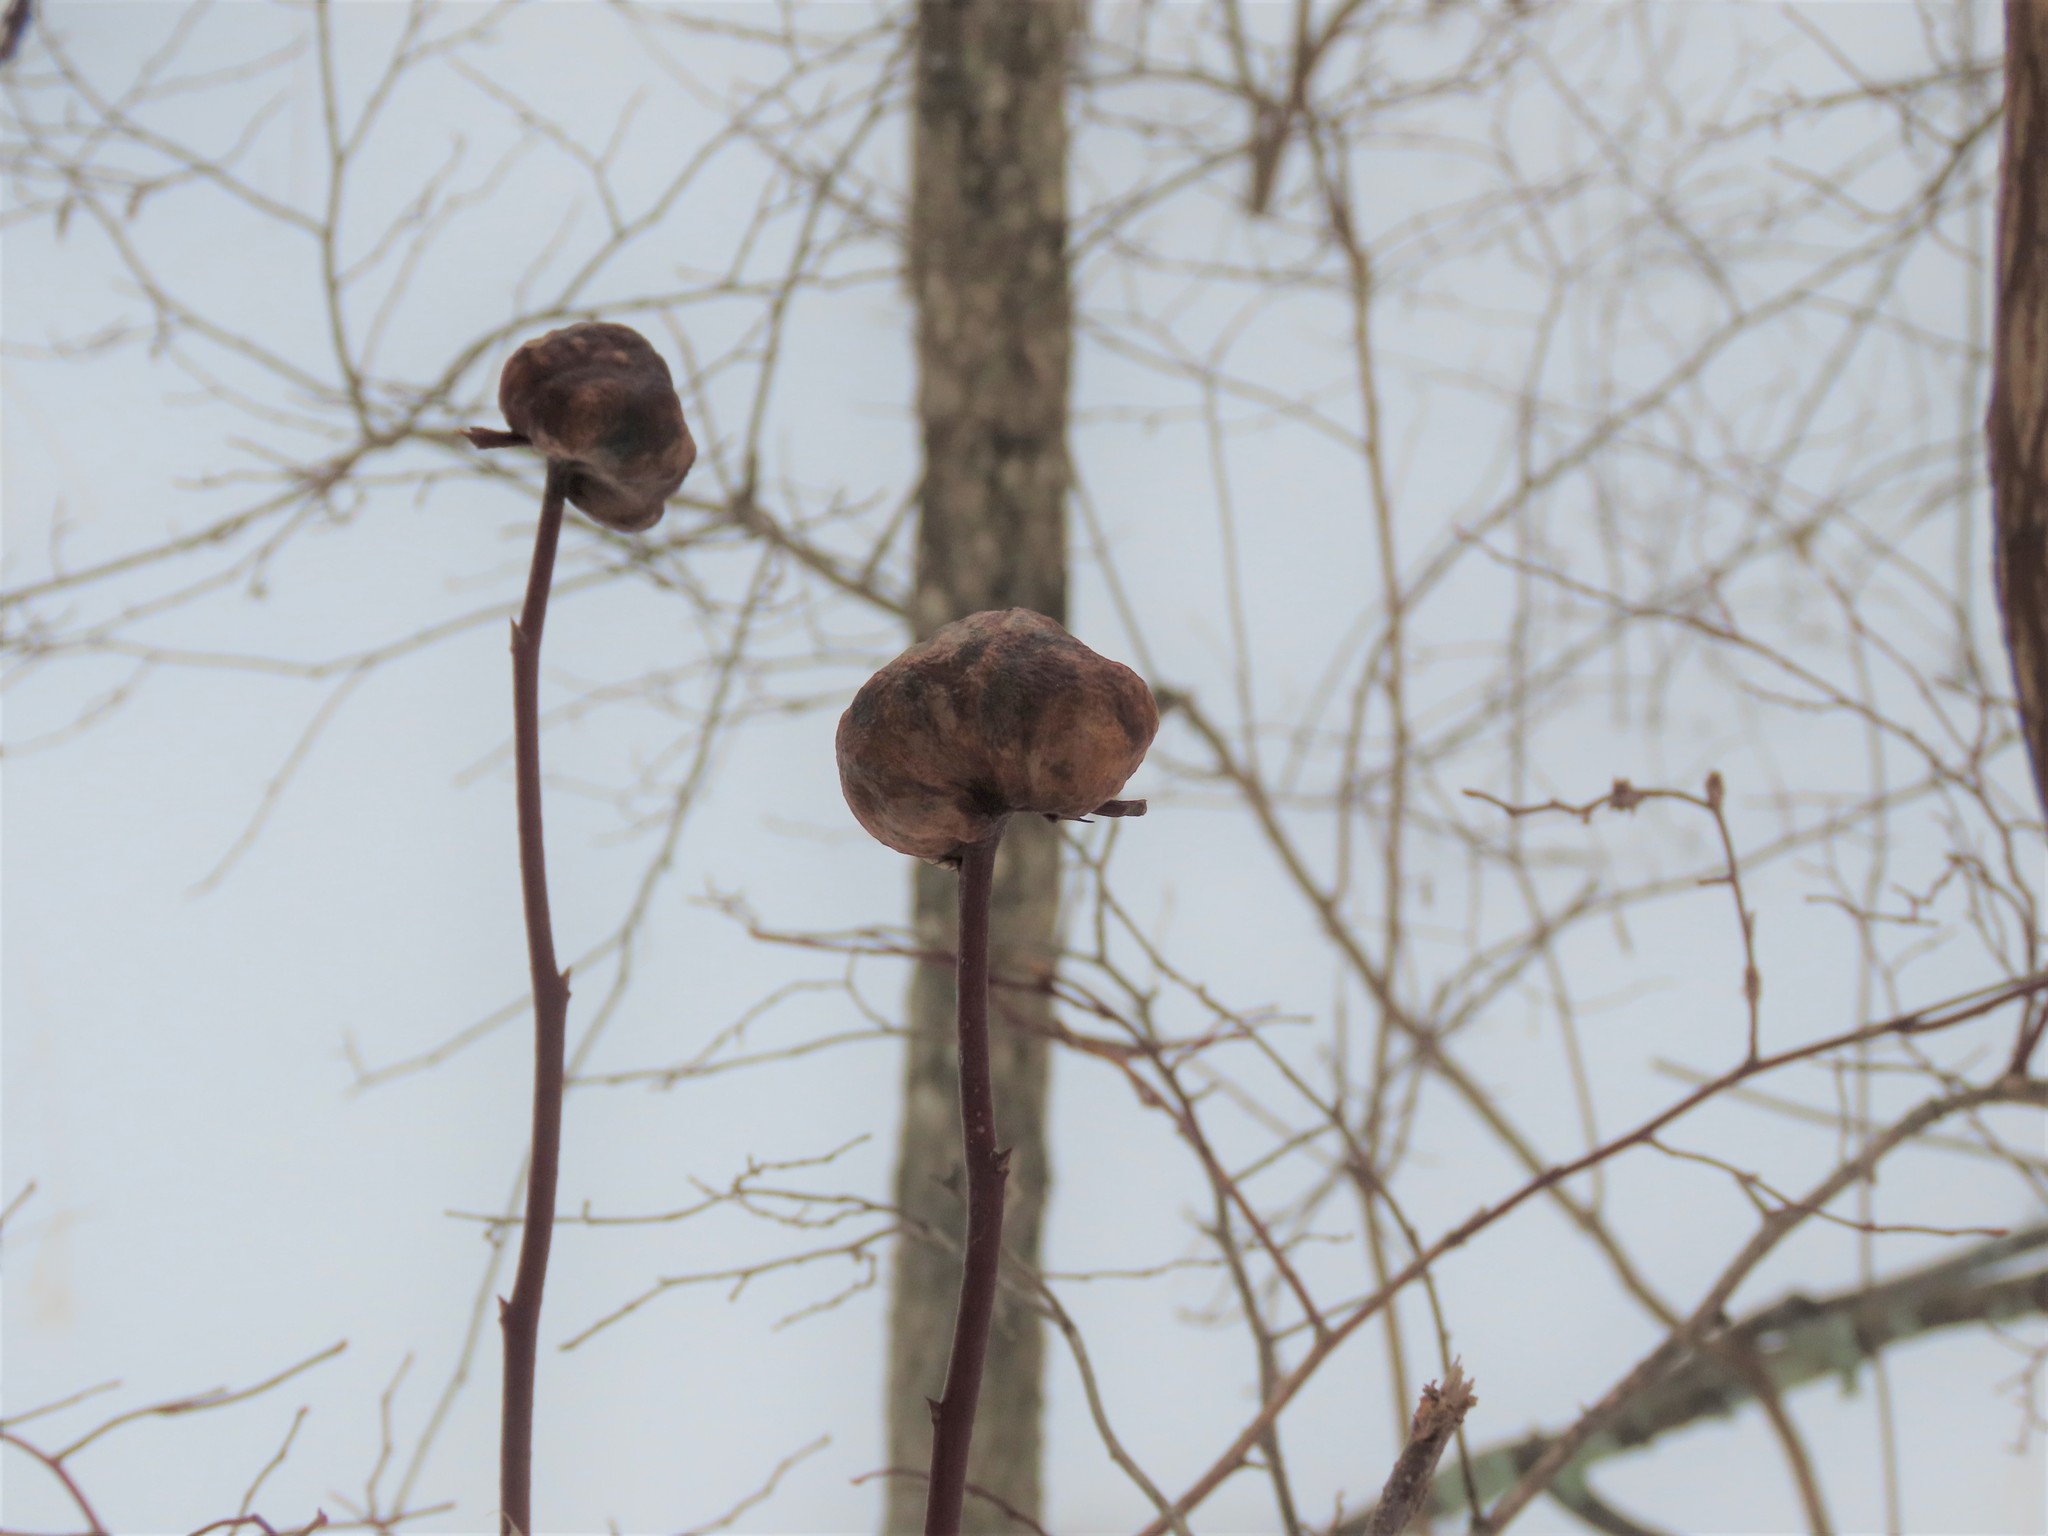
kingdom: Animalia
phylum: Arthropoda
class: Insecta
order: Hymenoptera
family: Pteromalidae
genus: Hemadas
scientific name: Hemadas nubilipennis
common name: Blueberry stem gall wasp
